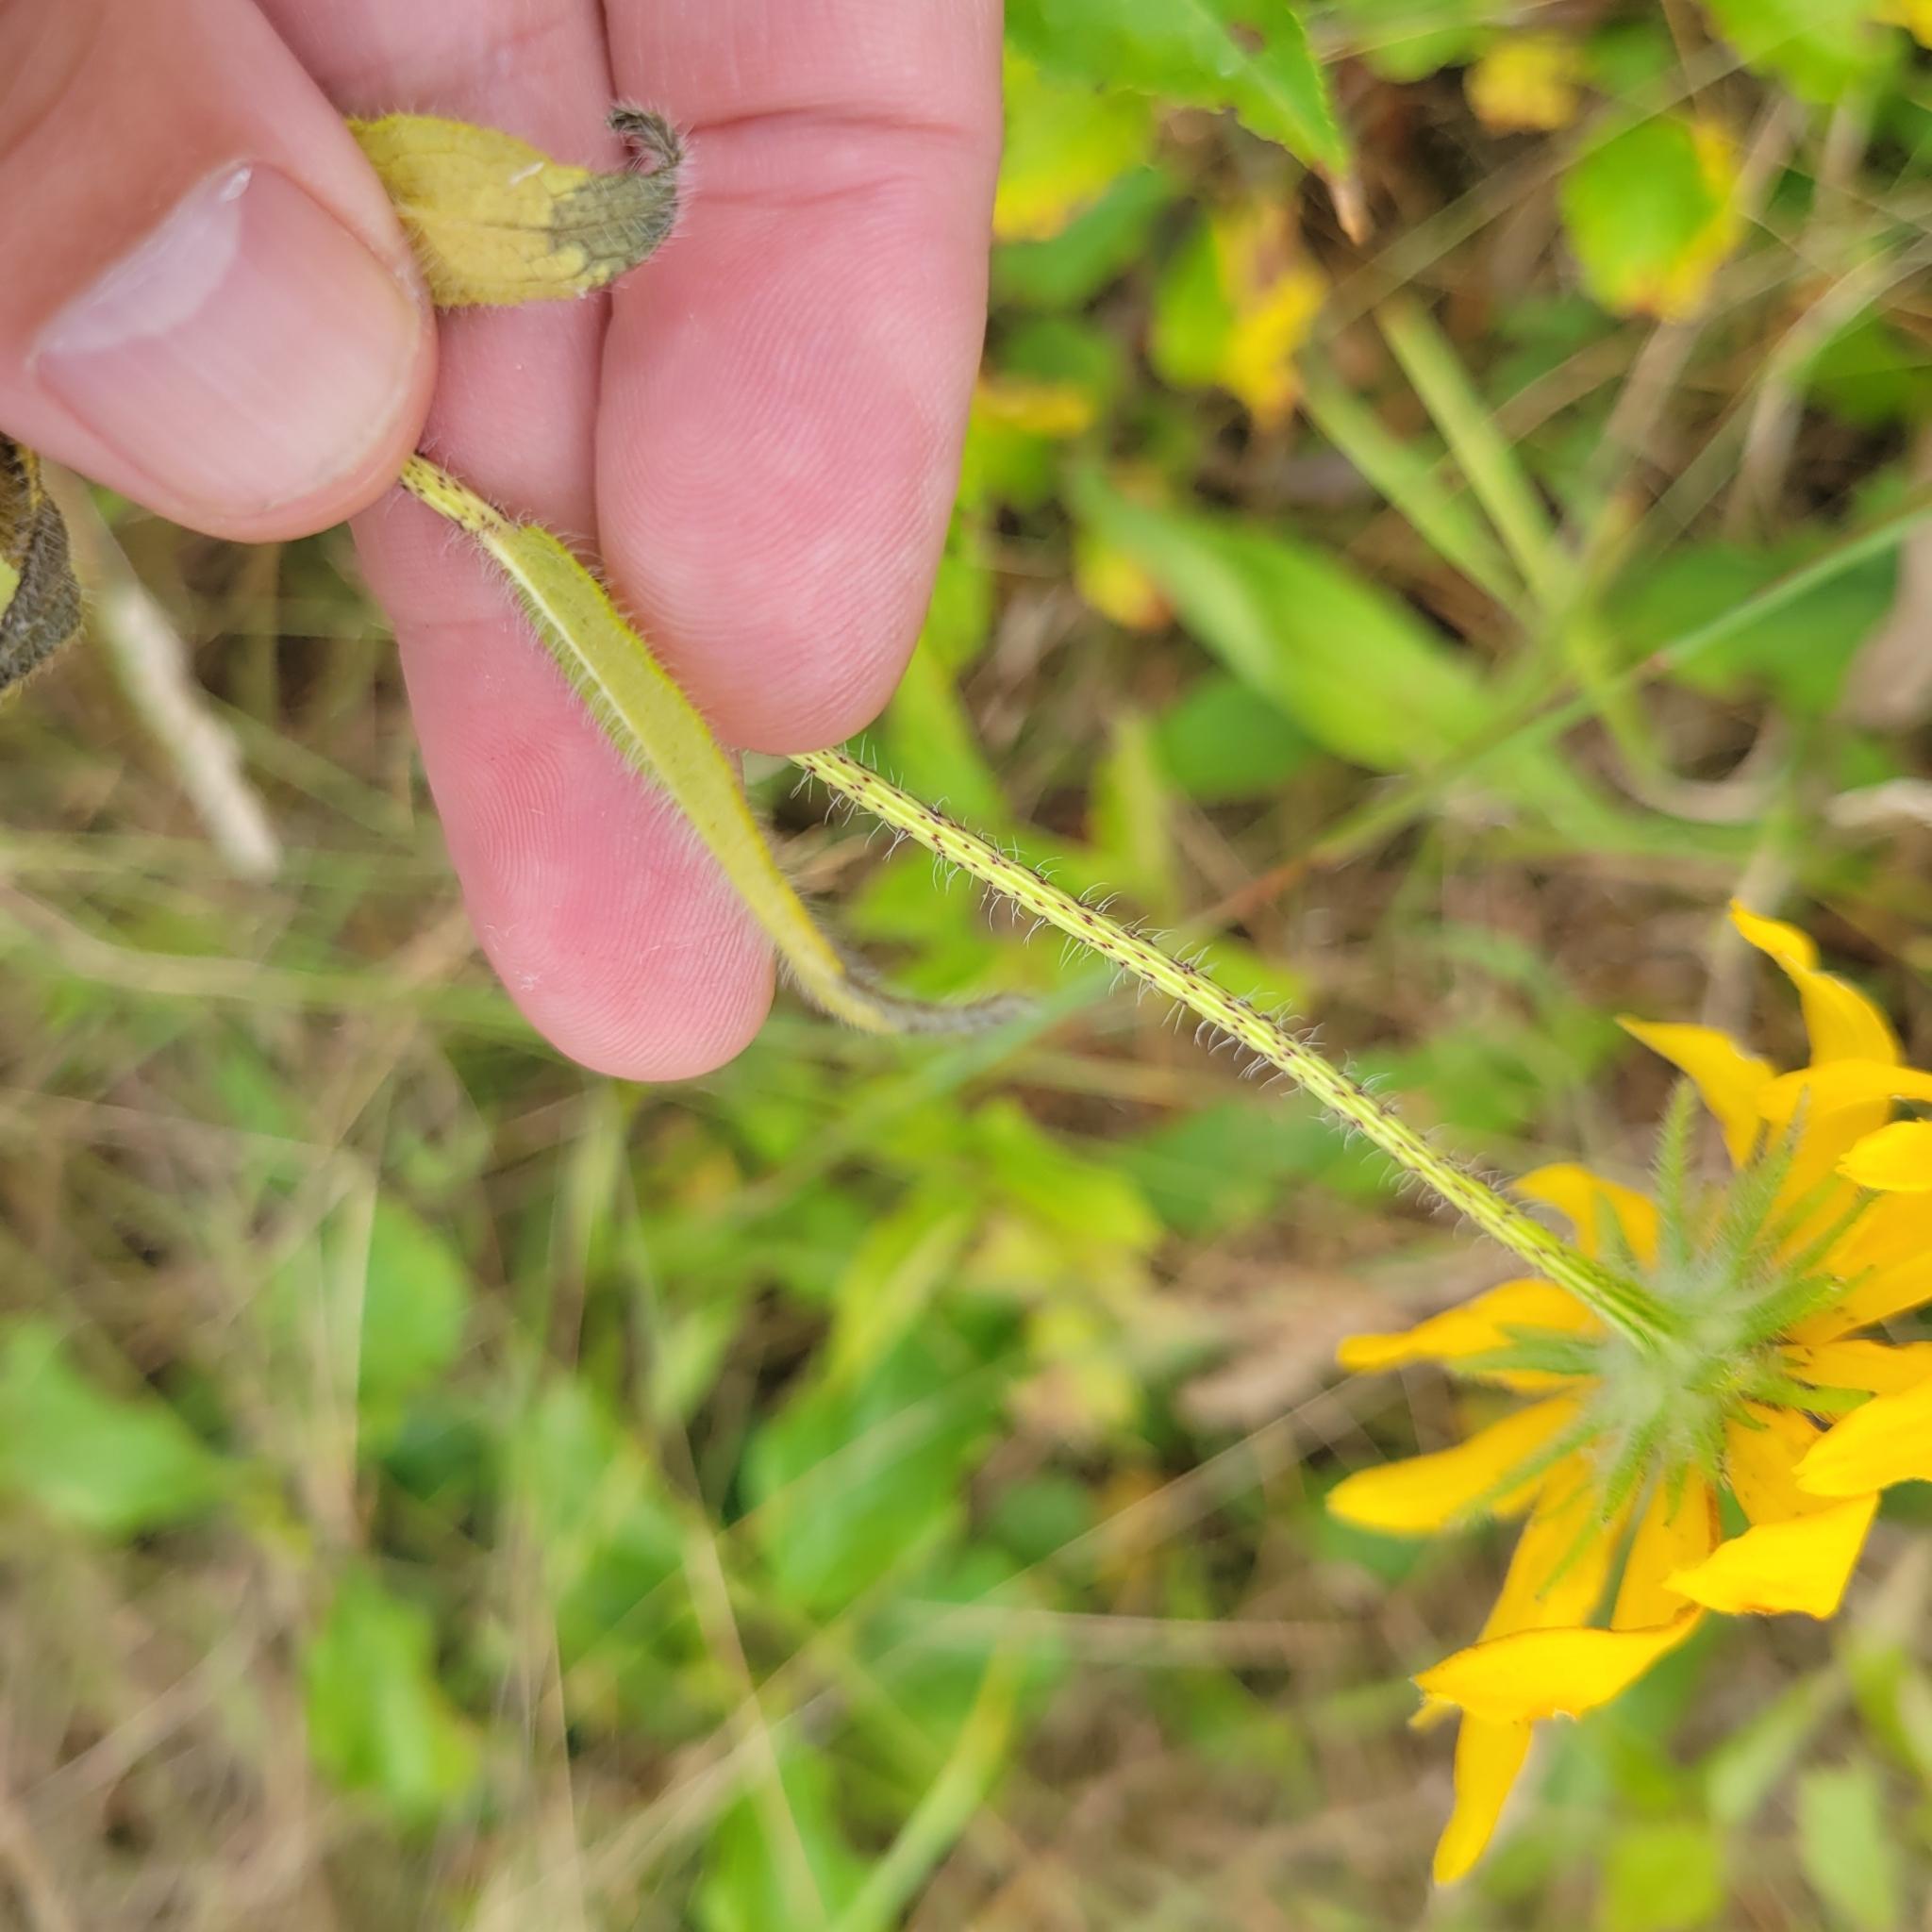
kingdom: Plantae
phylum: Tracheophyta
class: Magnoliopsida
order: Asterales
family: Asteraceae
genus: Rudbeckia
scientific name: Rudbeckia hirta
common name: Black-eyed-susan
